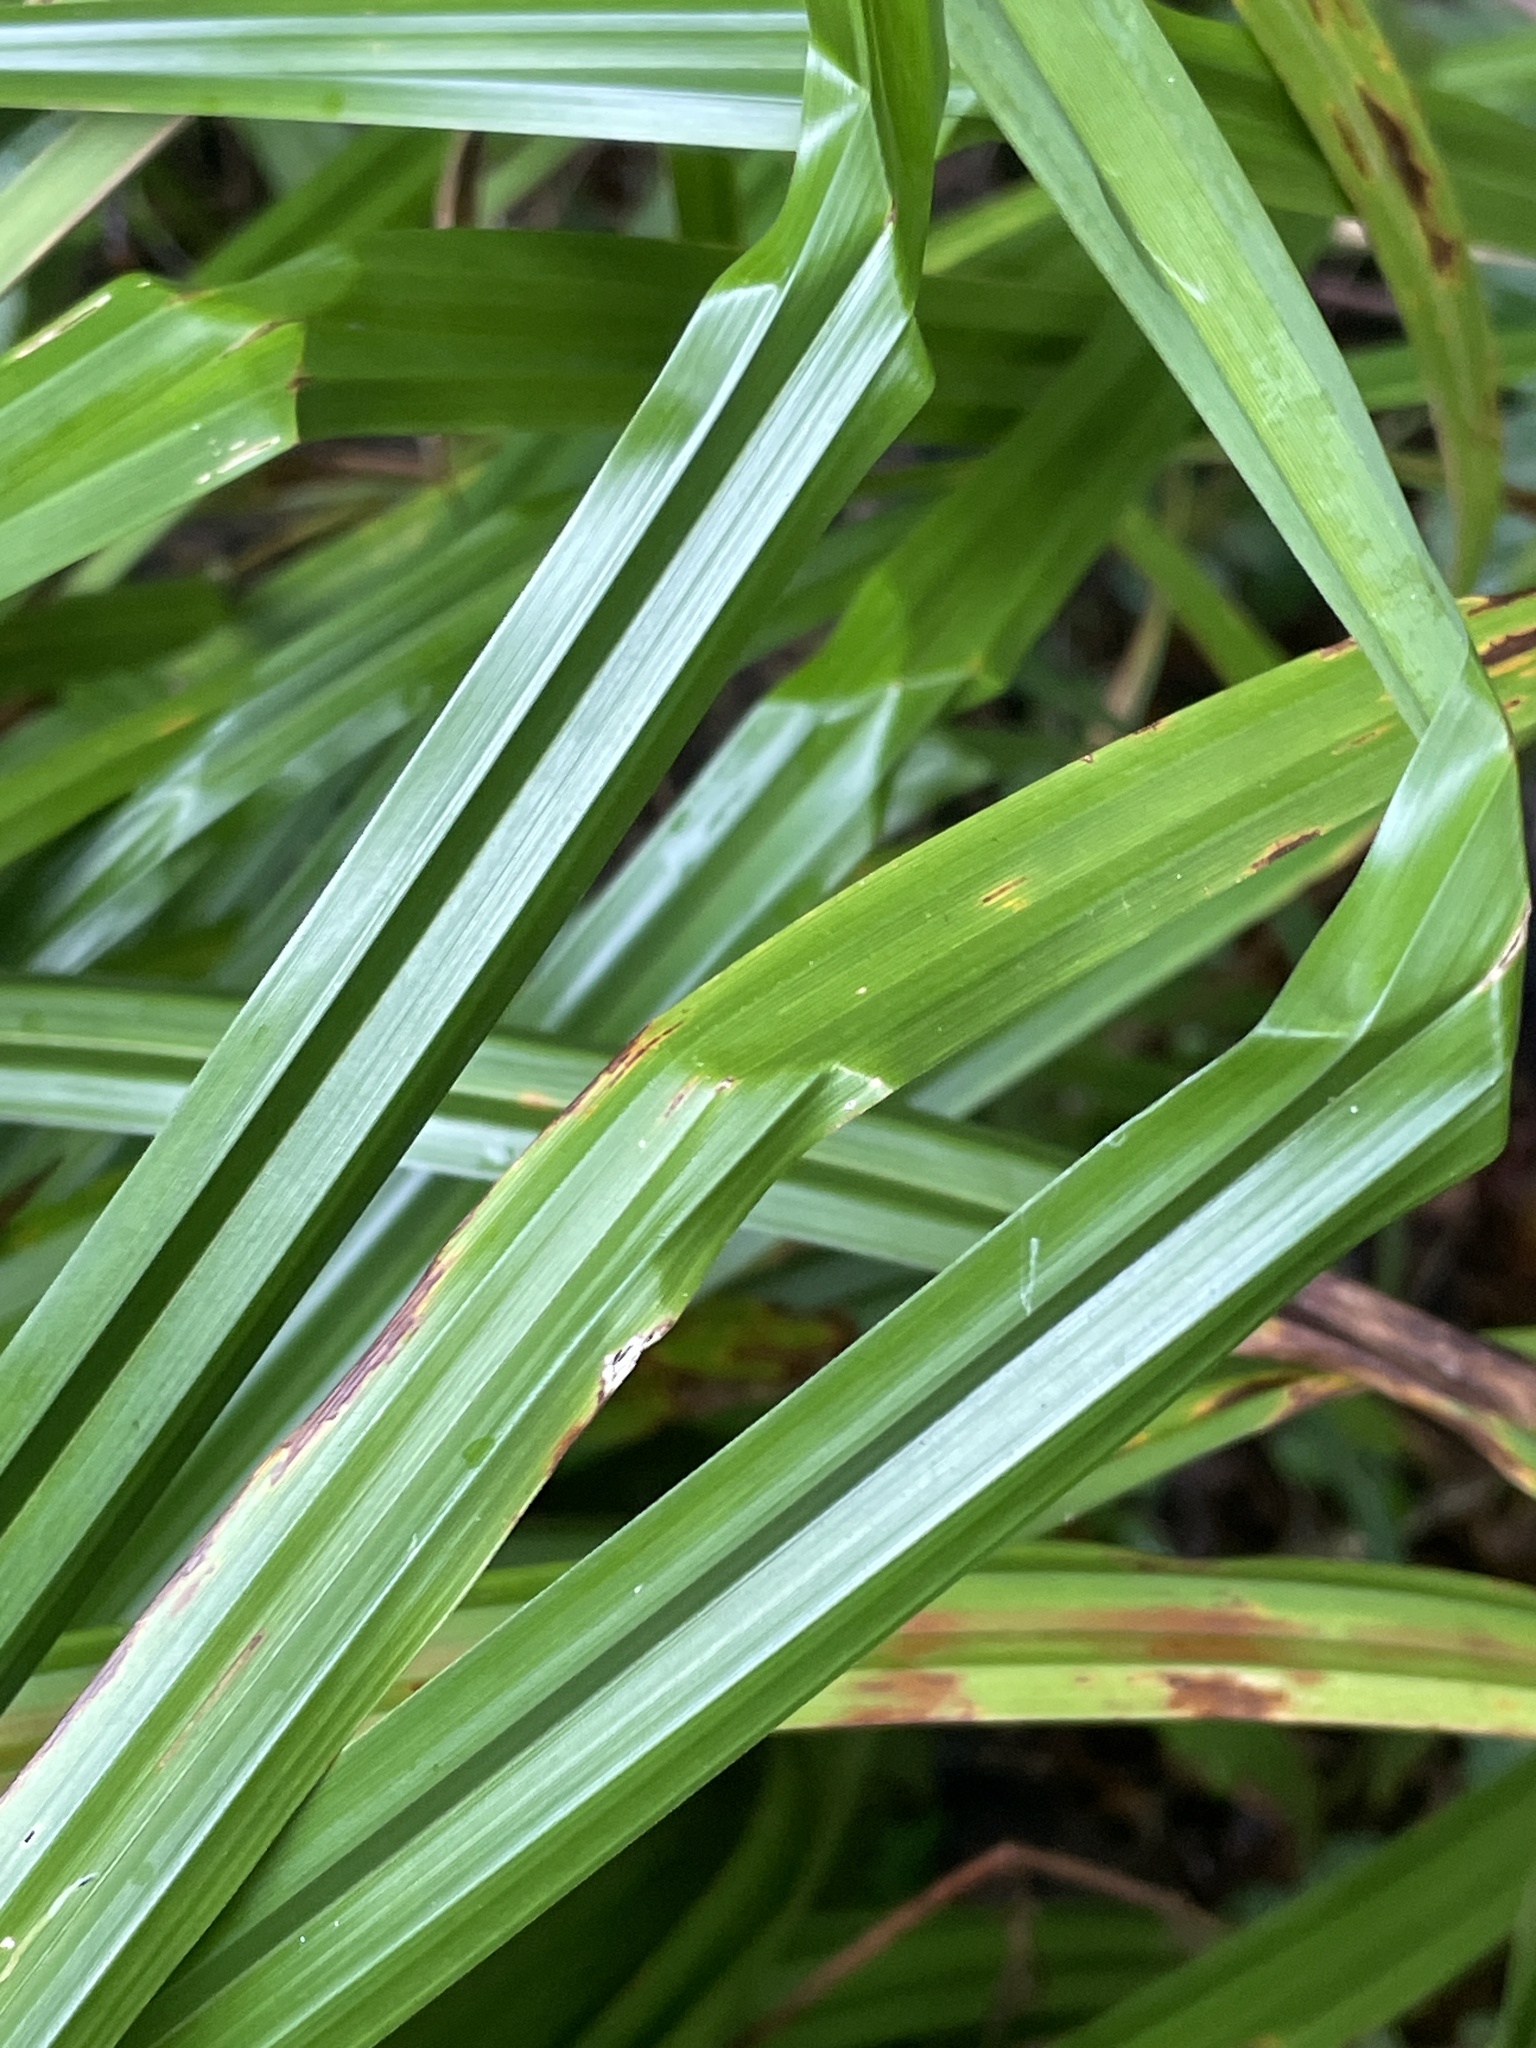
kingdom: Plantae
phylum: Tracheophyta
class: Liliopsida
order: Poales
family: Cyperaceae
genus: Carex
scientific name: Carex pendula
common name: Pendulous sedge
